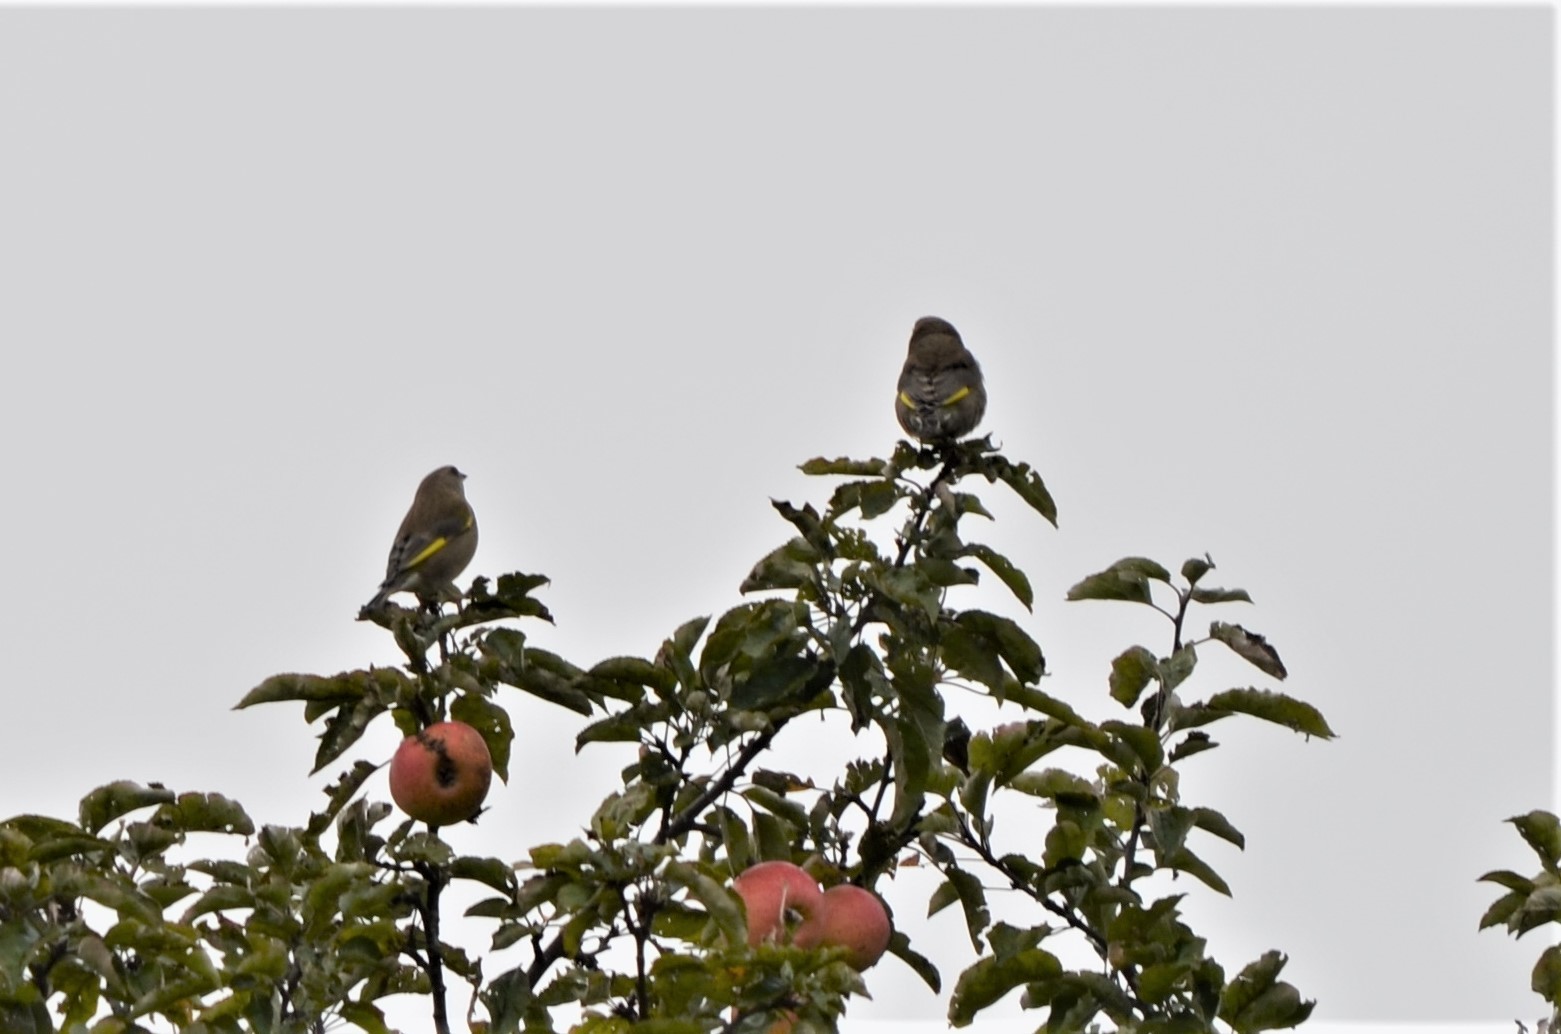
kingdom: Plantae
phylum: Tracheophyta
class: Liliopsida
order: Poales
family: Poaceae
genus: Chloris
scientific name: Chloris chloris
